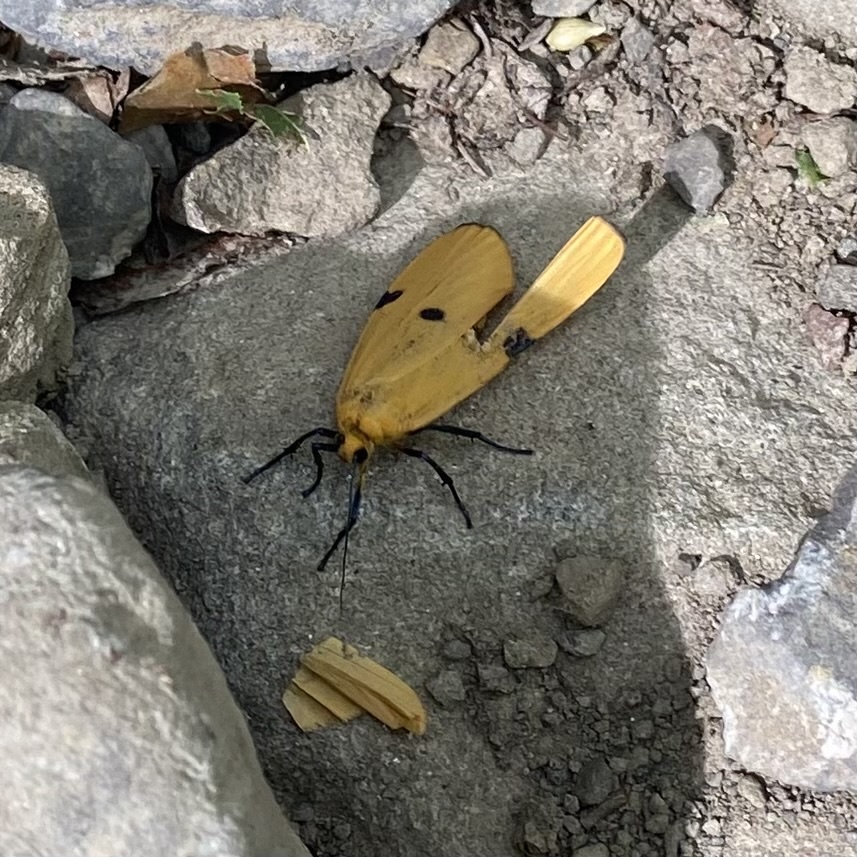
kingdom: Animalia
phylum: Arthropoda
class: Insecta
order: Lepidoptera
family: Erebidae
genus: Lithosia
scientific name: Lithosia quadra
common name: Four-spotted footman
